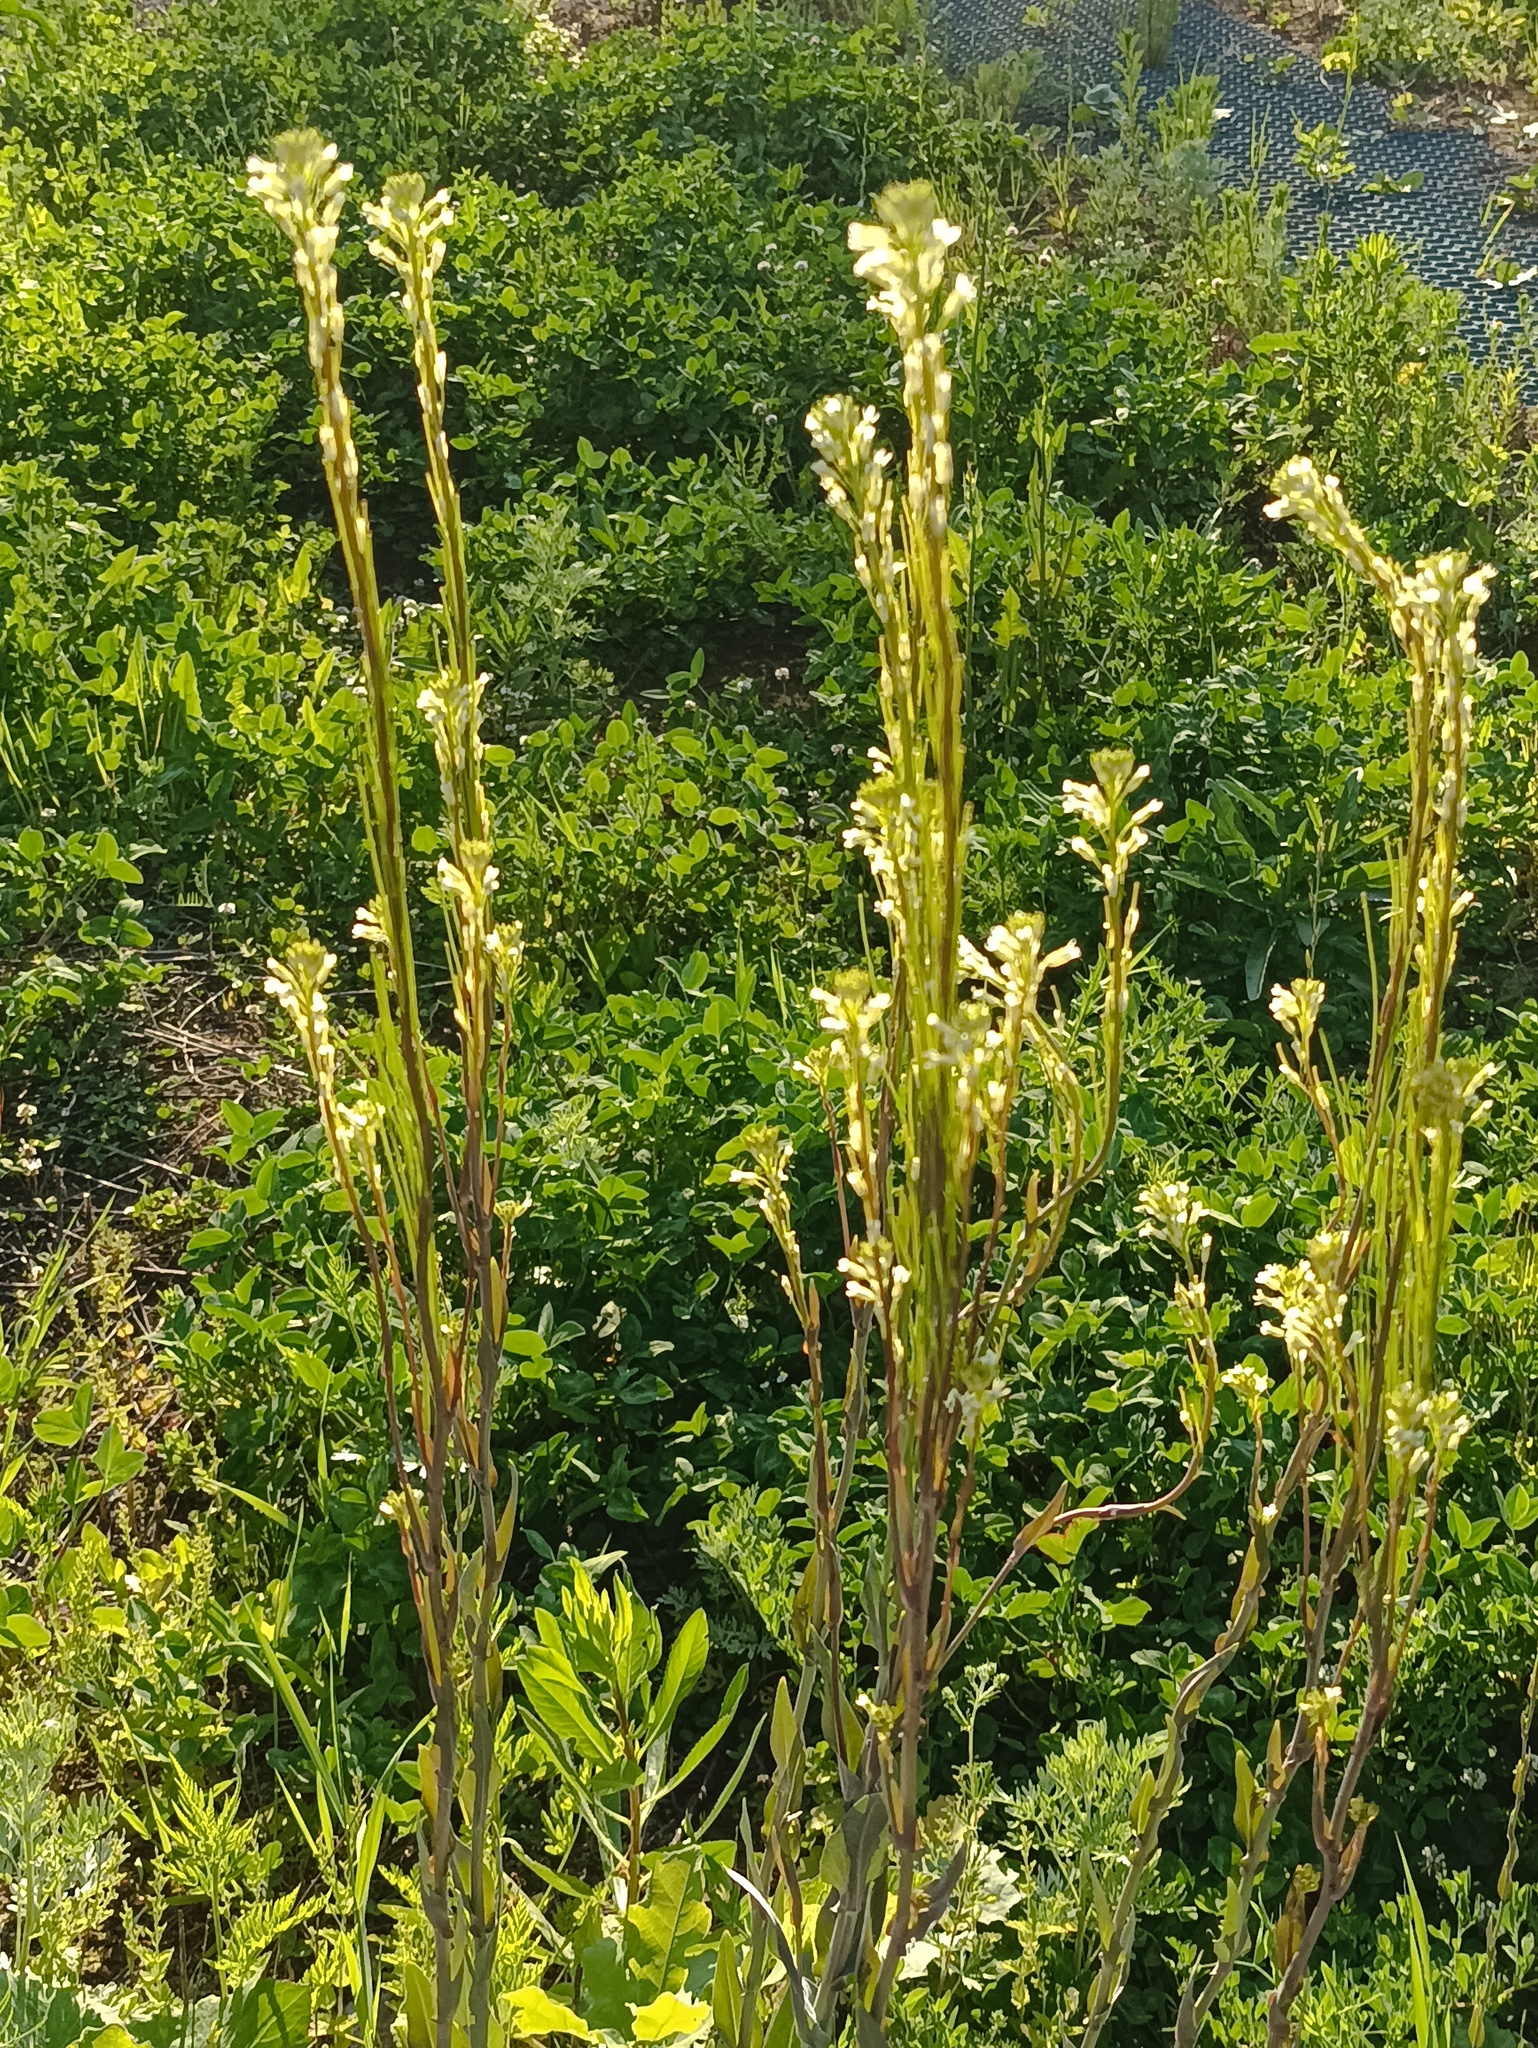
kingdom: Plantae
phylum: Tracheophyta
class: Magnoliopsida
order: Brassicales
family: Brassicaceae
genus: Turritis
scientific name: Turritis glabra
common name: Tower rockcress
